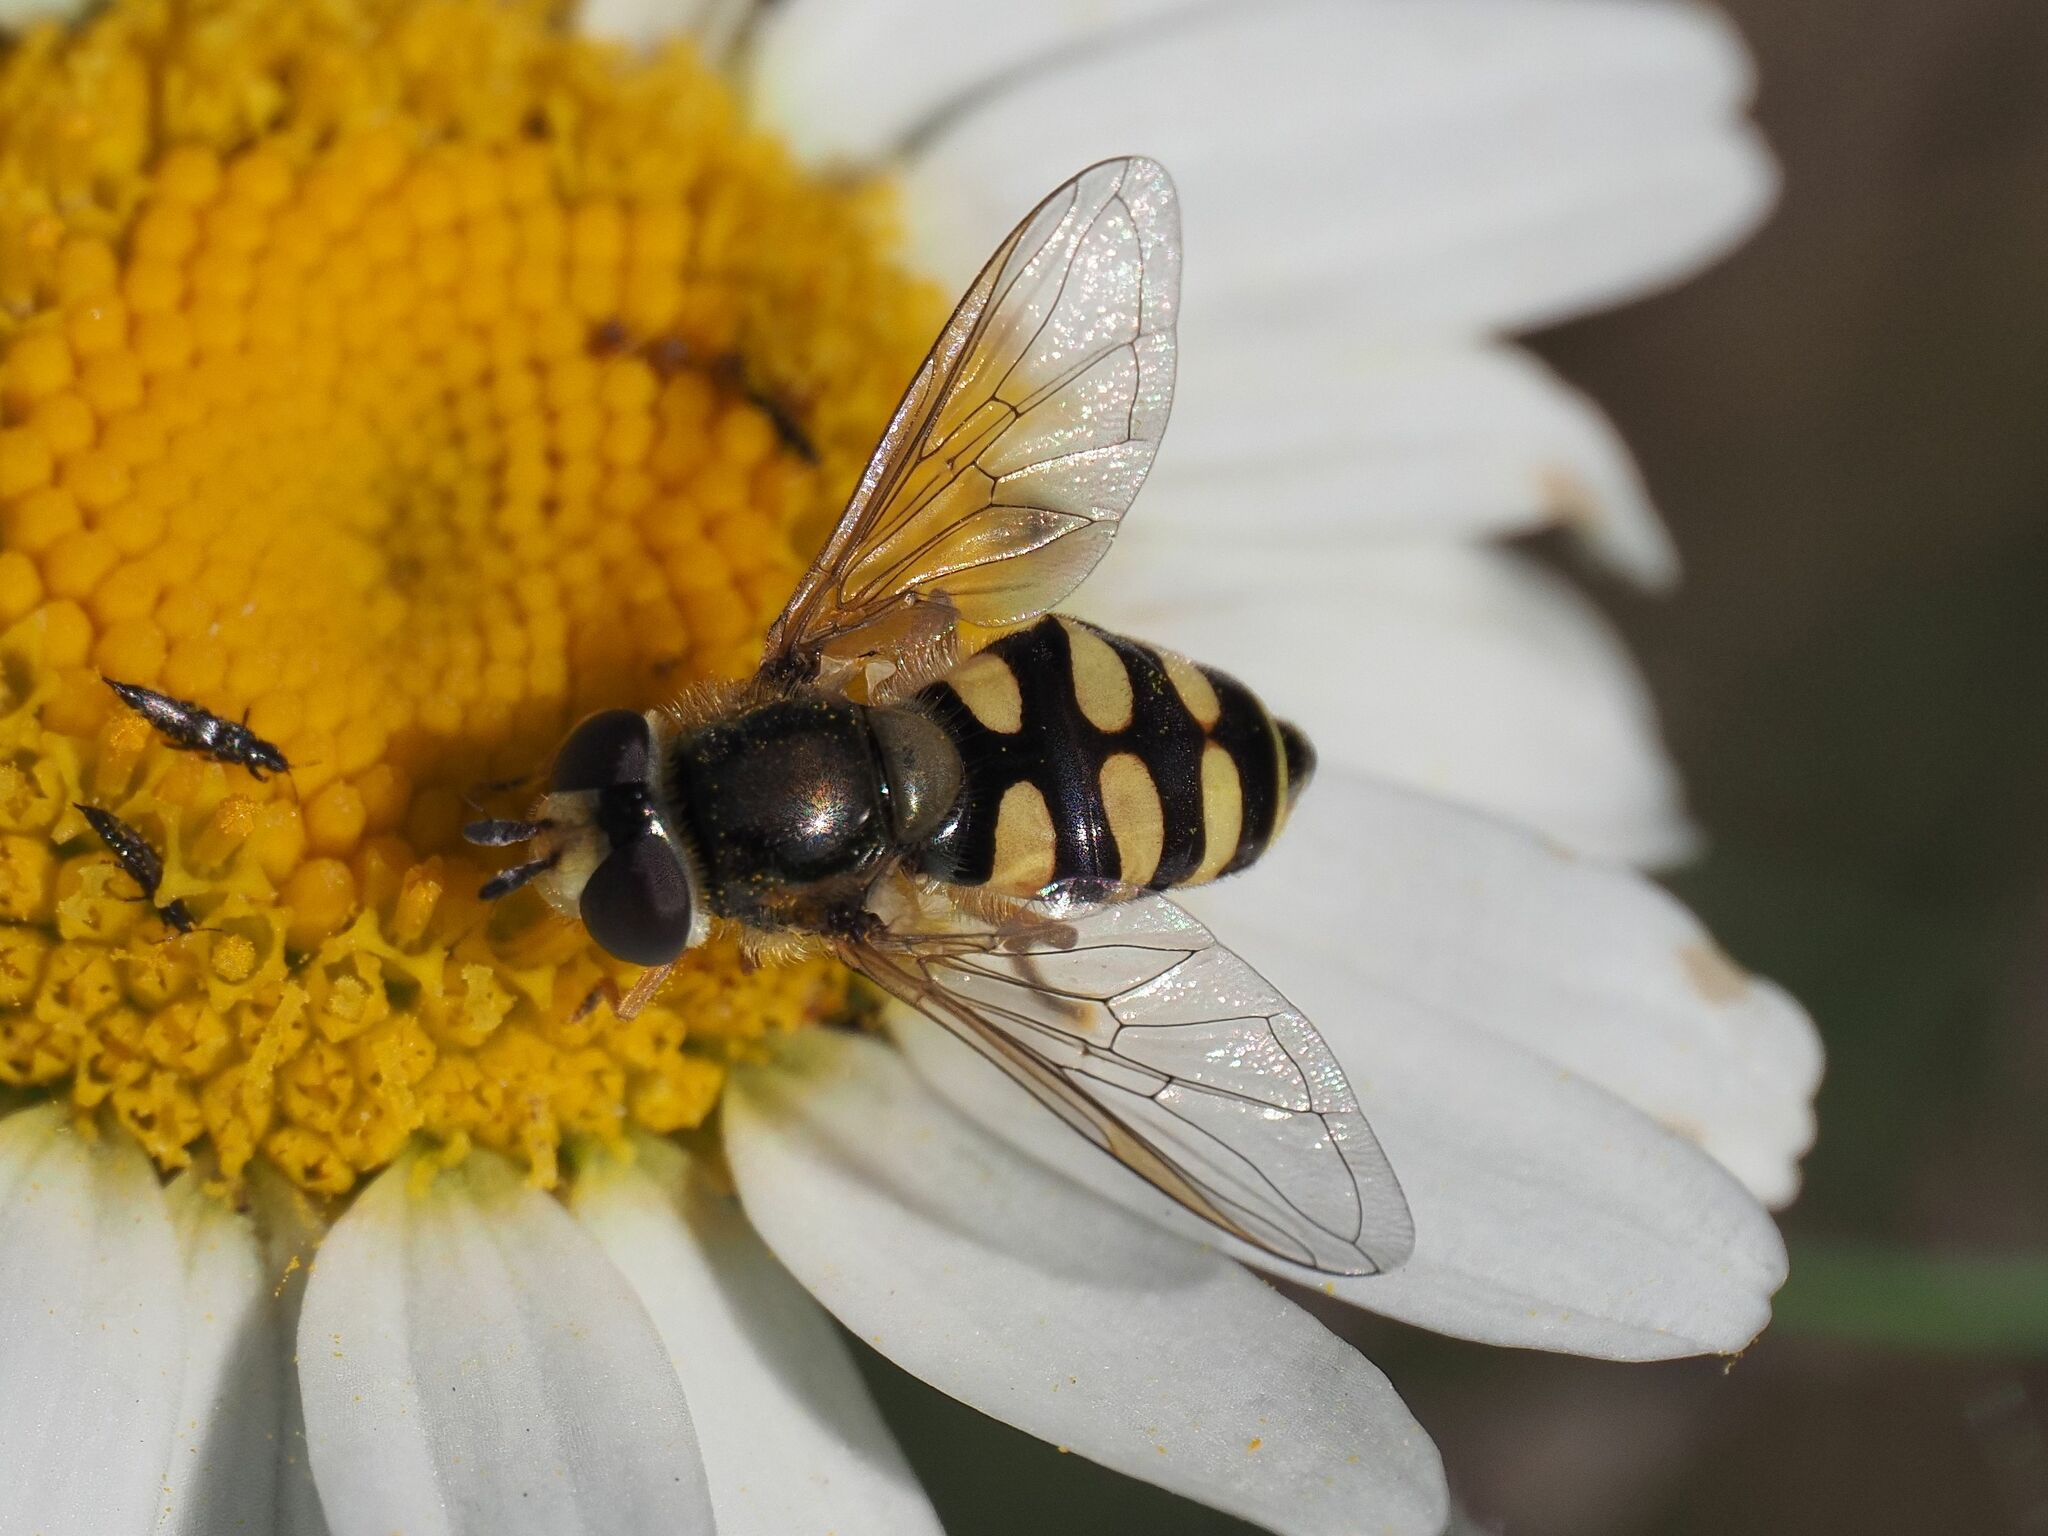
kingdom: Animalia
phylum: Arthropoda
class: Insecta
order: Diptera
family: Syrphidae
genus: Eupeodes
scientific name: Eupeodes corollae
